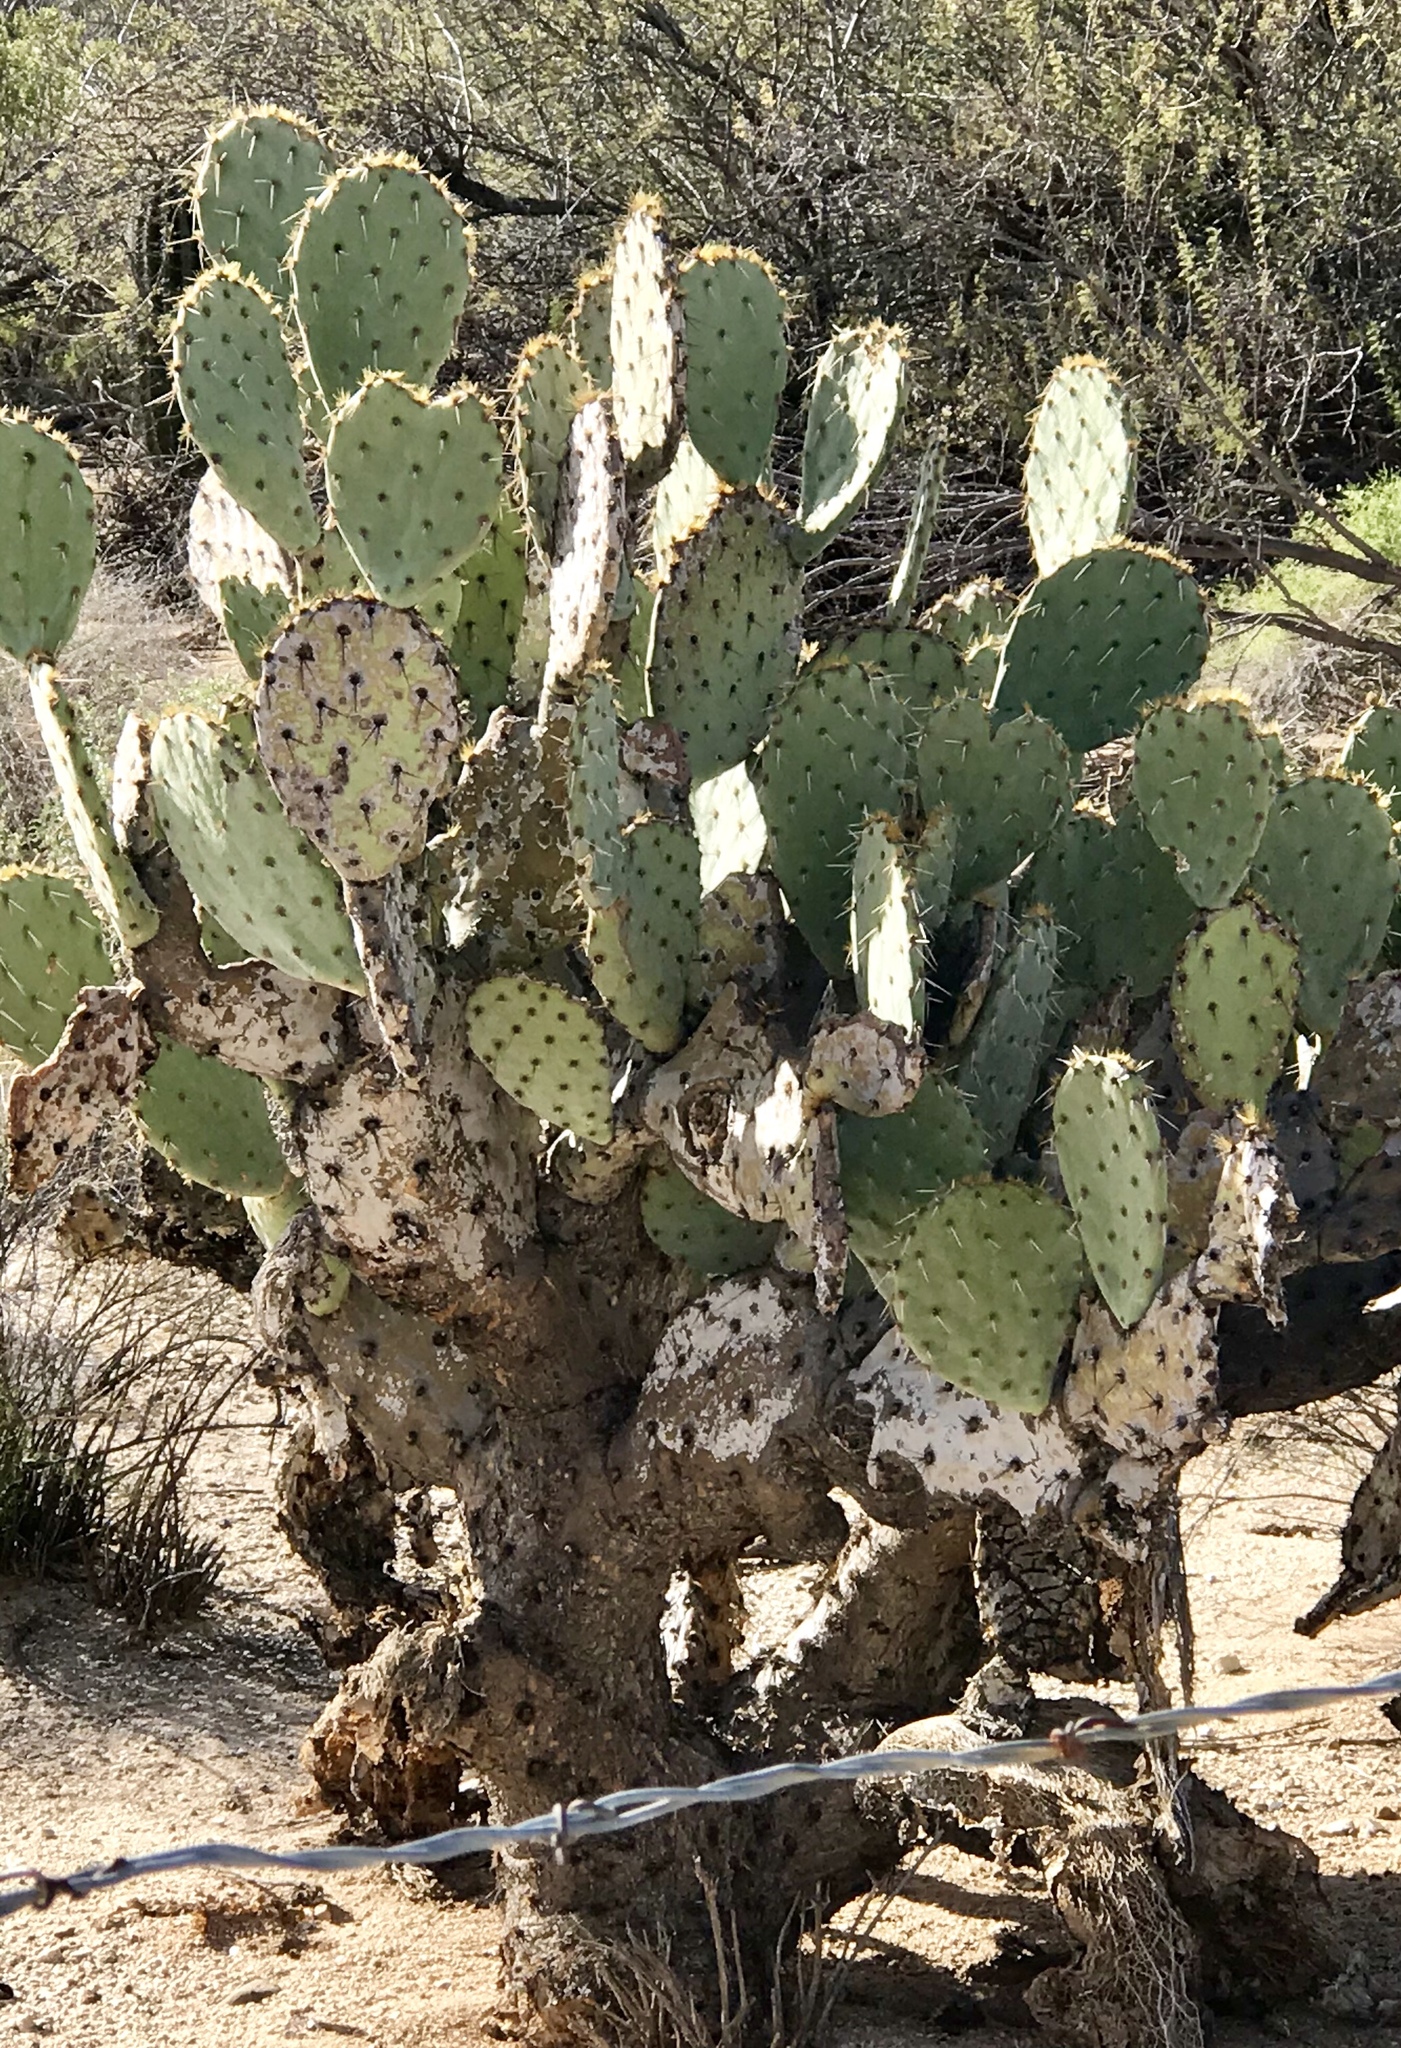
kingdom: Plantae
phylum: Tracheophyta
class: Magnoliopsida
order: Caryophyllales
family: Cactaceae
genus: Opuntia
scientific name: Opuntia engelmannii
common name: Cactus-apple
